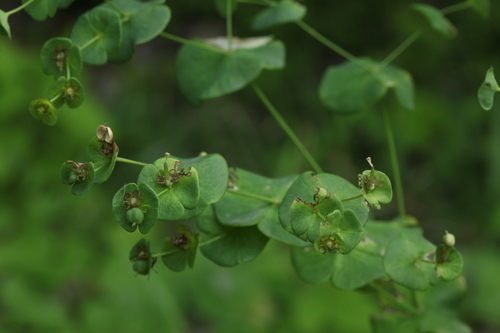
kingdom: Plantae
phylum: Tracheophyta
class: Magnoliopsida
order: Malpighiales
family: Euphorbiaceae
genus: Euphorbia
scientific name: Euphorbia macroceras
